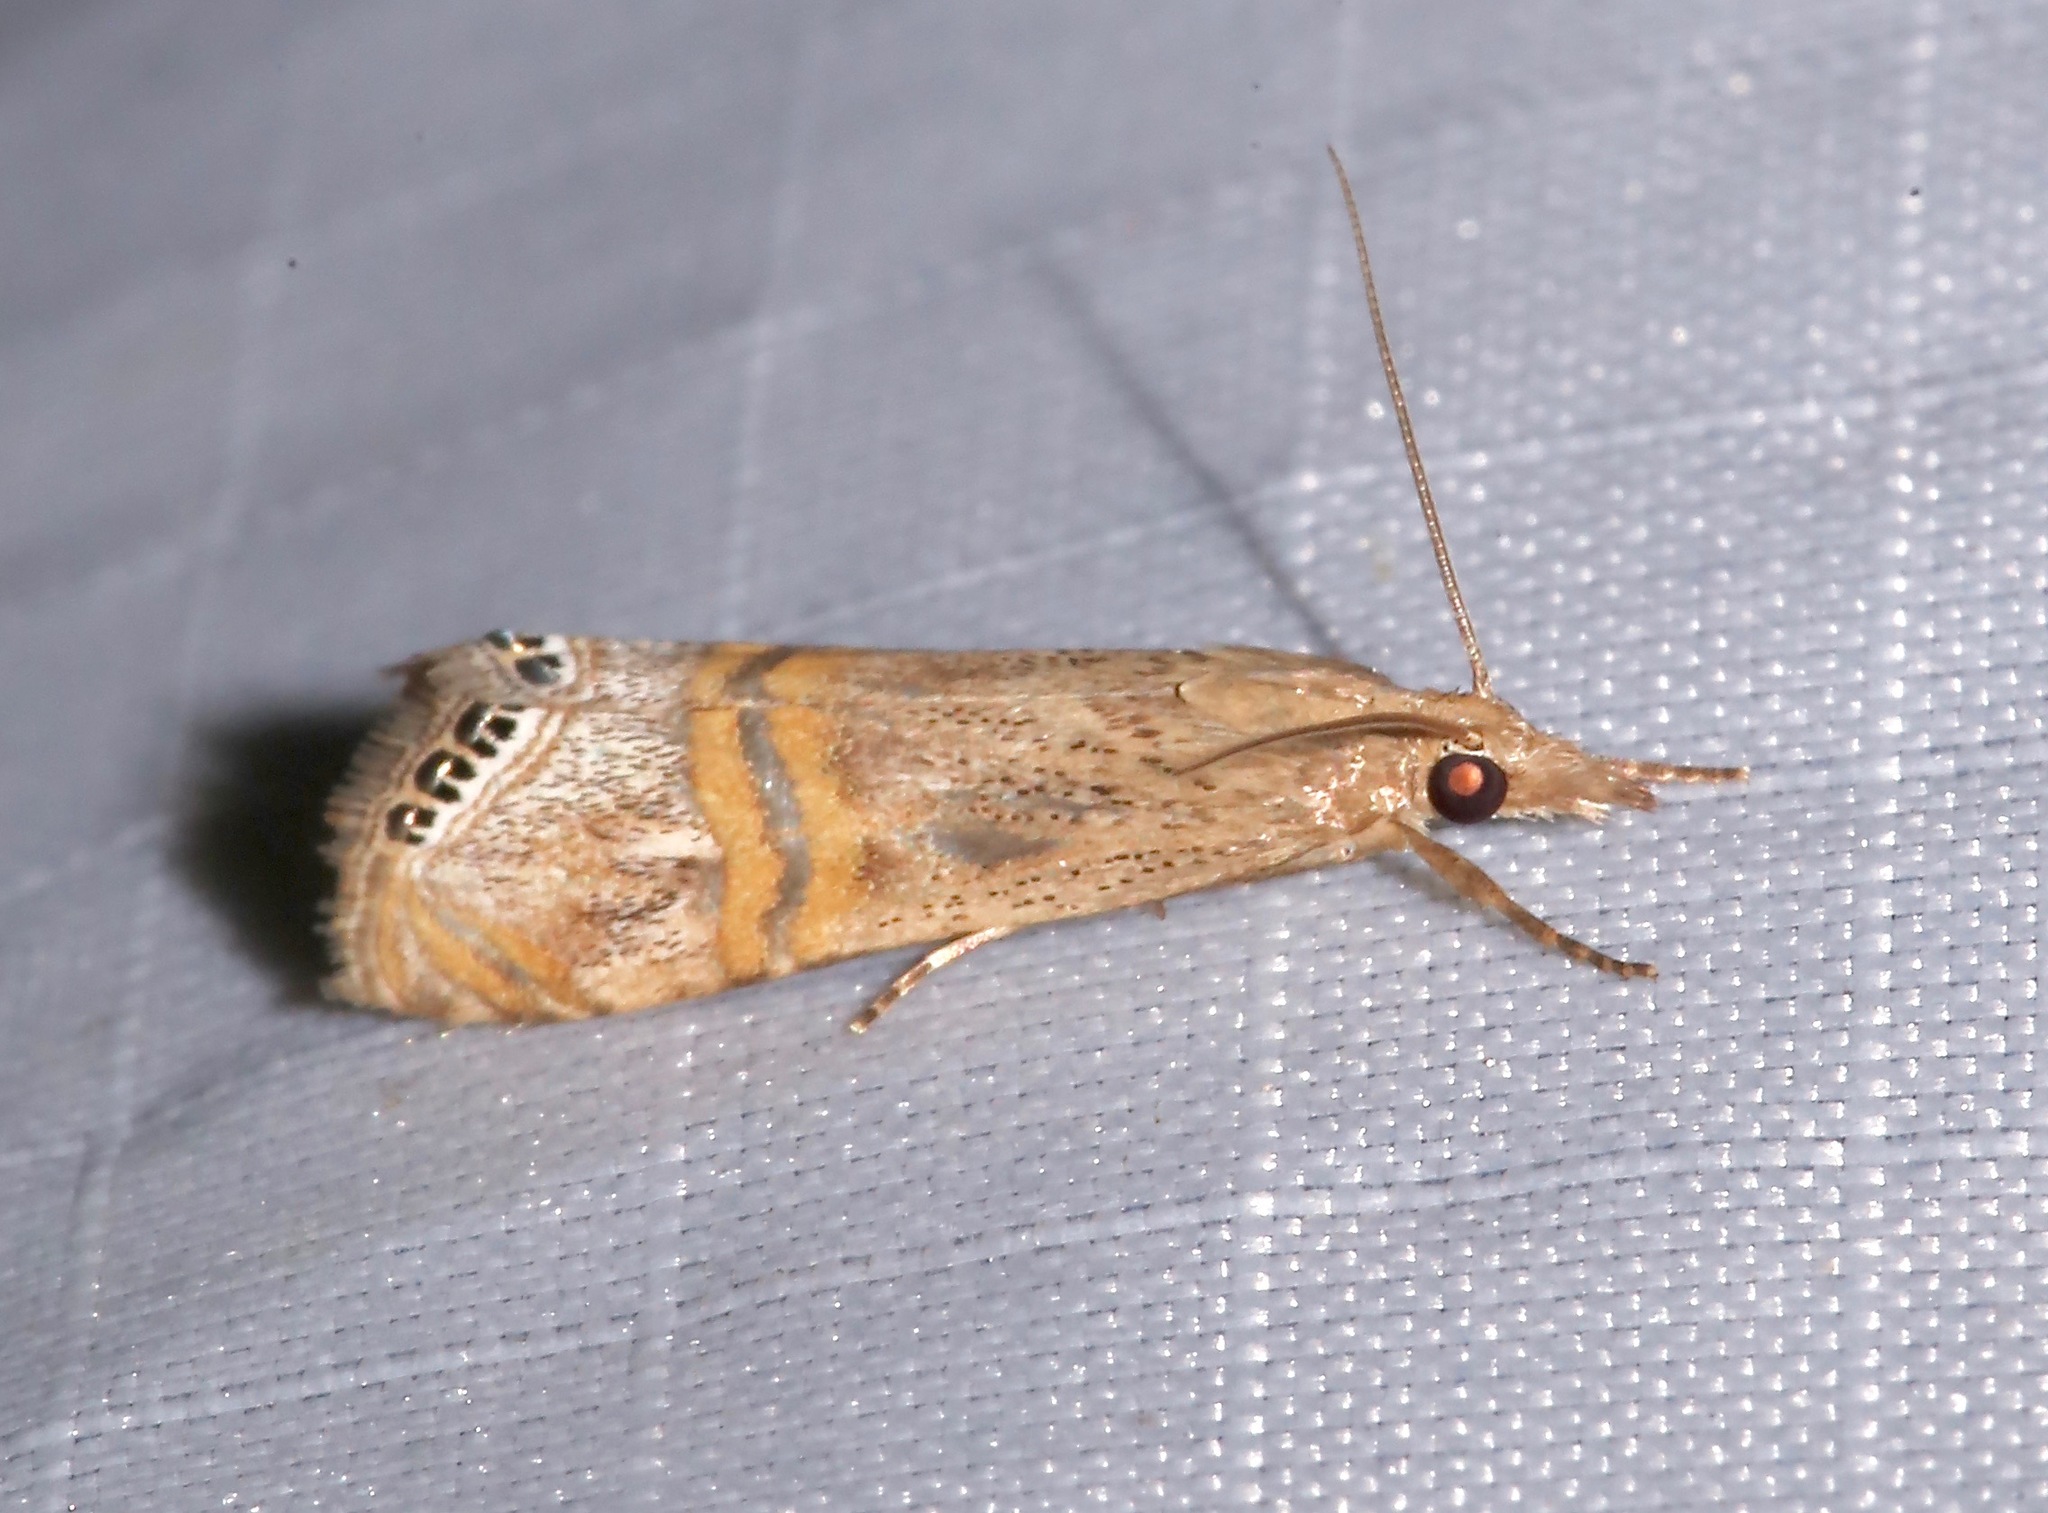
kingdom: Animalia
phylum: Arthropoda
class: Insecta
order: Lepidoptera
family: Crambidae
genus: Euchromius
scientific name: Euchromius ocellea
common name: Necklace veneer moth
